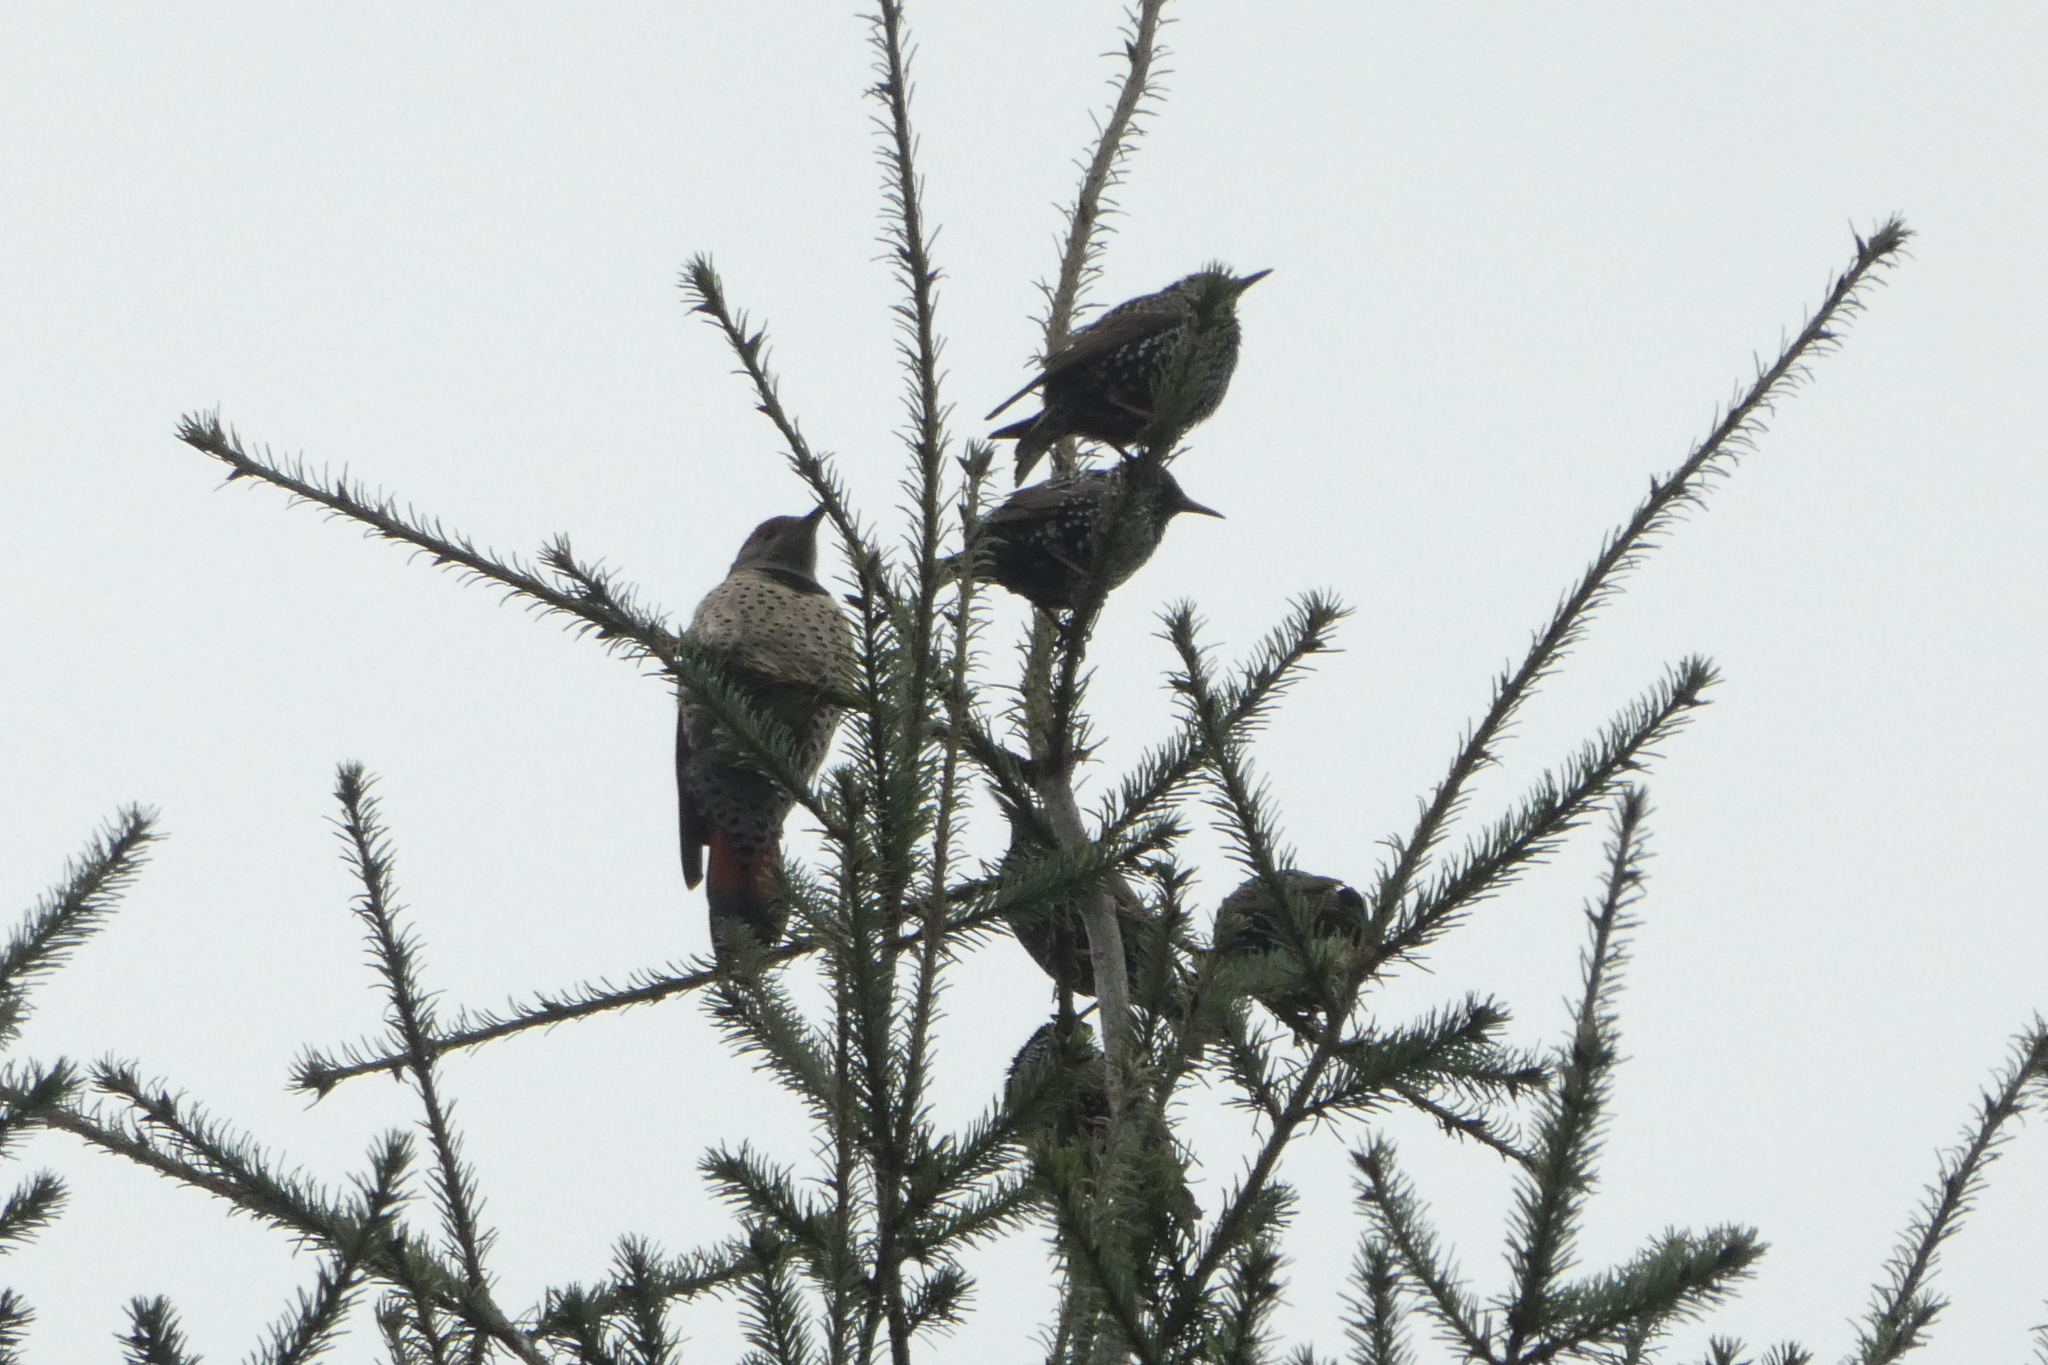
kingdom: Animalia
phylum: Chordata
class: Aves
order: Passeriformes
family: Sturnidae
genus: Sturnus
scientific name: Sturnus vulgaris
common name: Common starling
